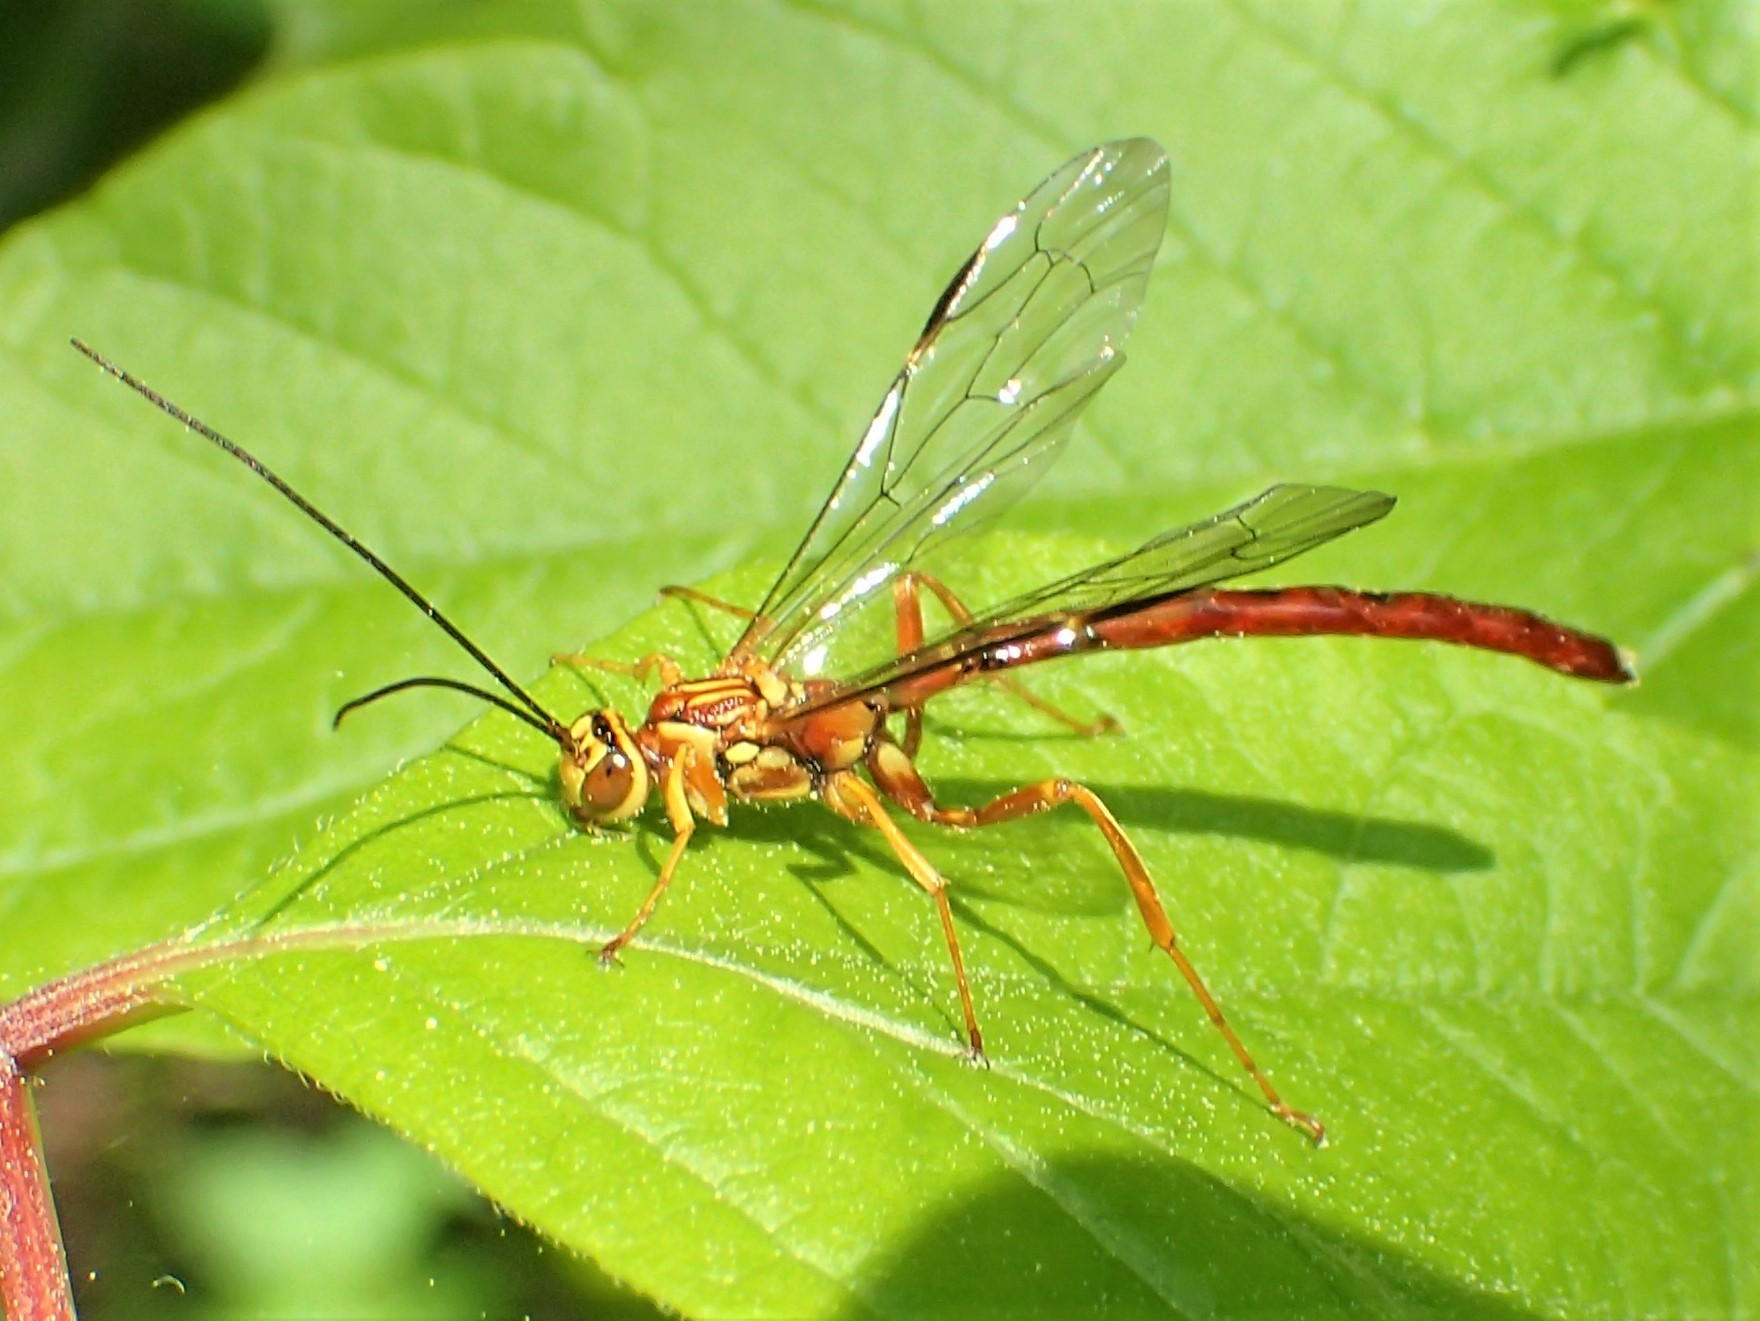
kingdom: Animalia
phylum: Arthropoda
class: Insecta
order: Hymenoptera
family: Ichneumonidae
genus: Megarhyssa
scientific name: Megarhyssa greenei
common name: Greene's giant ichneumonid wasp
